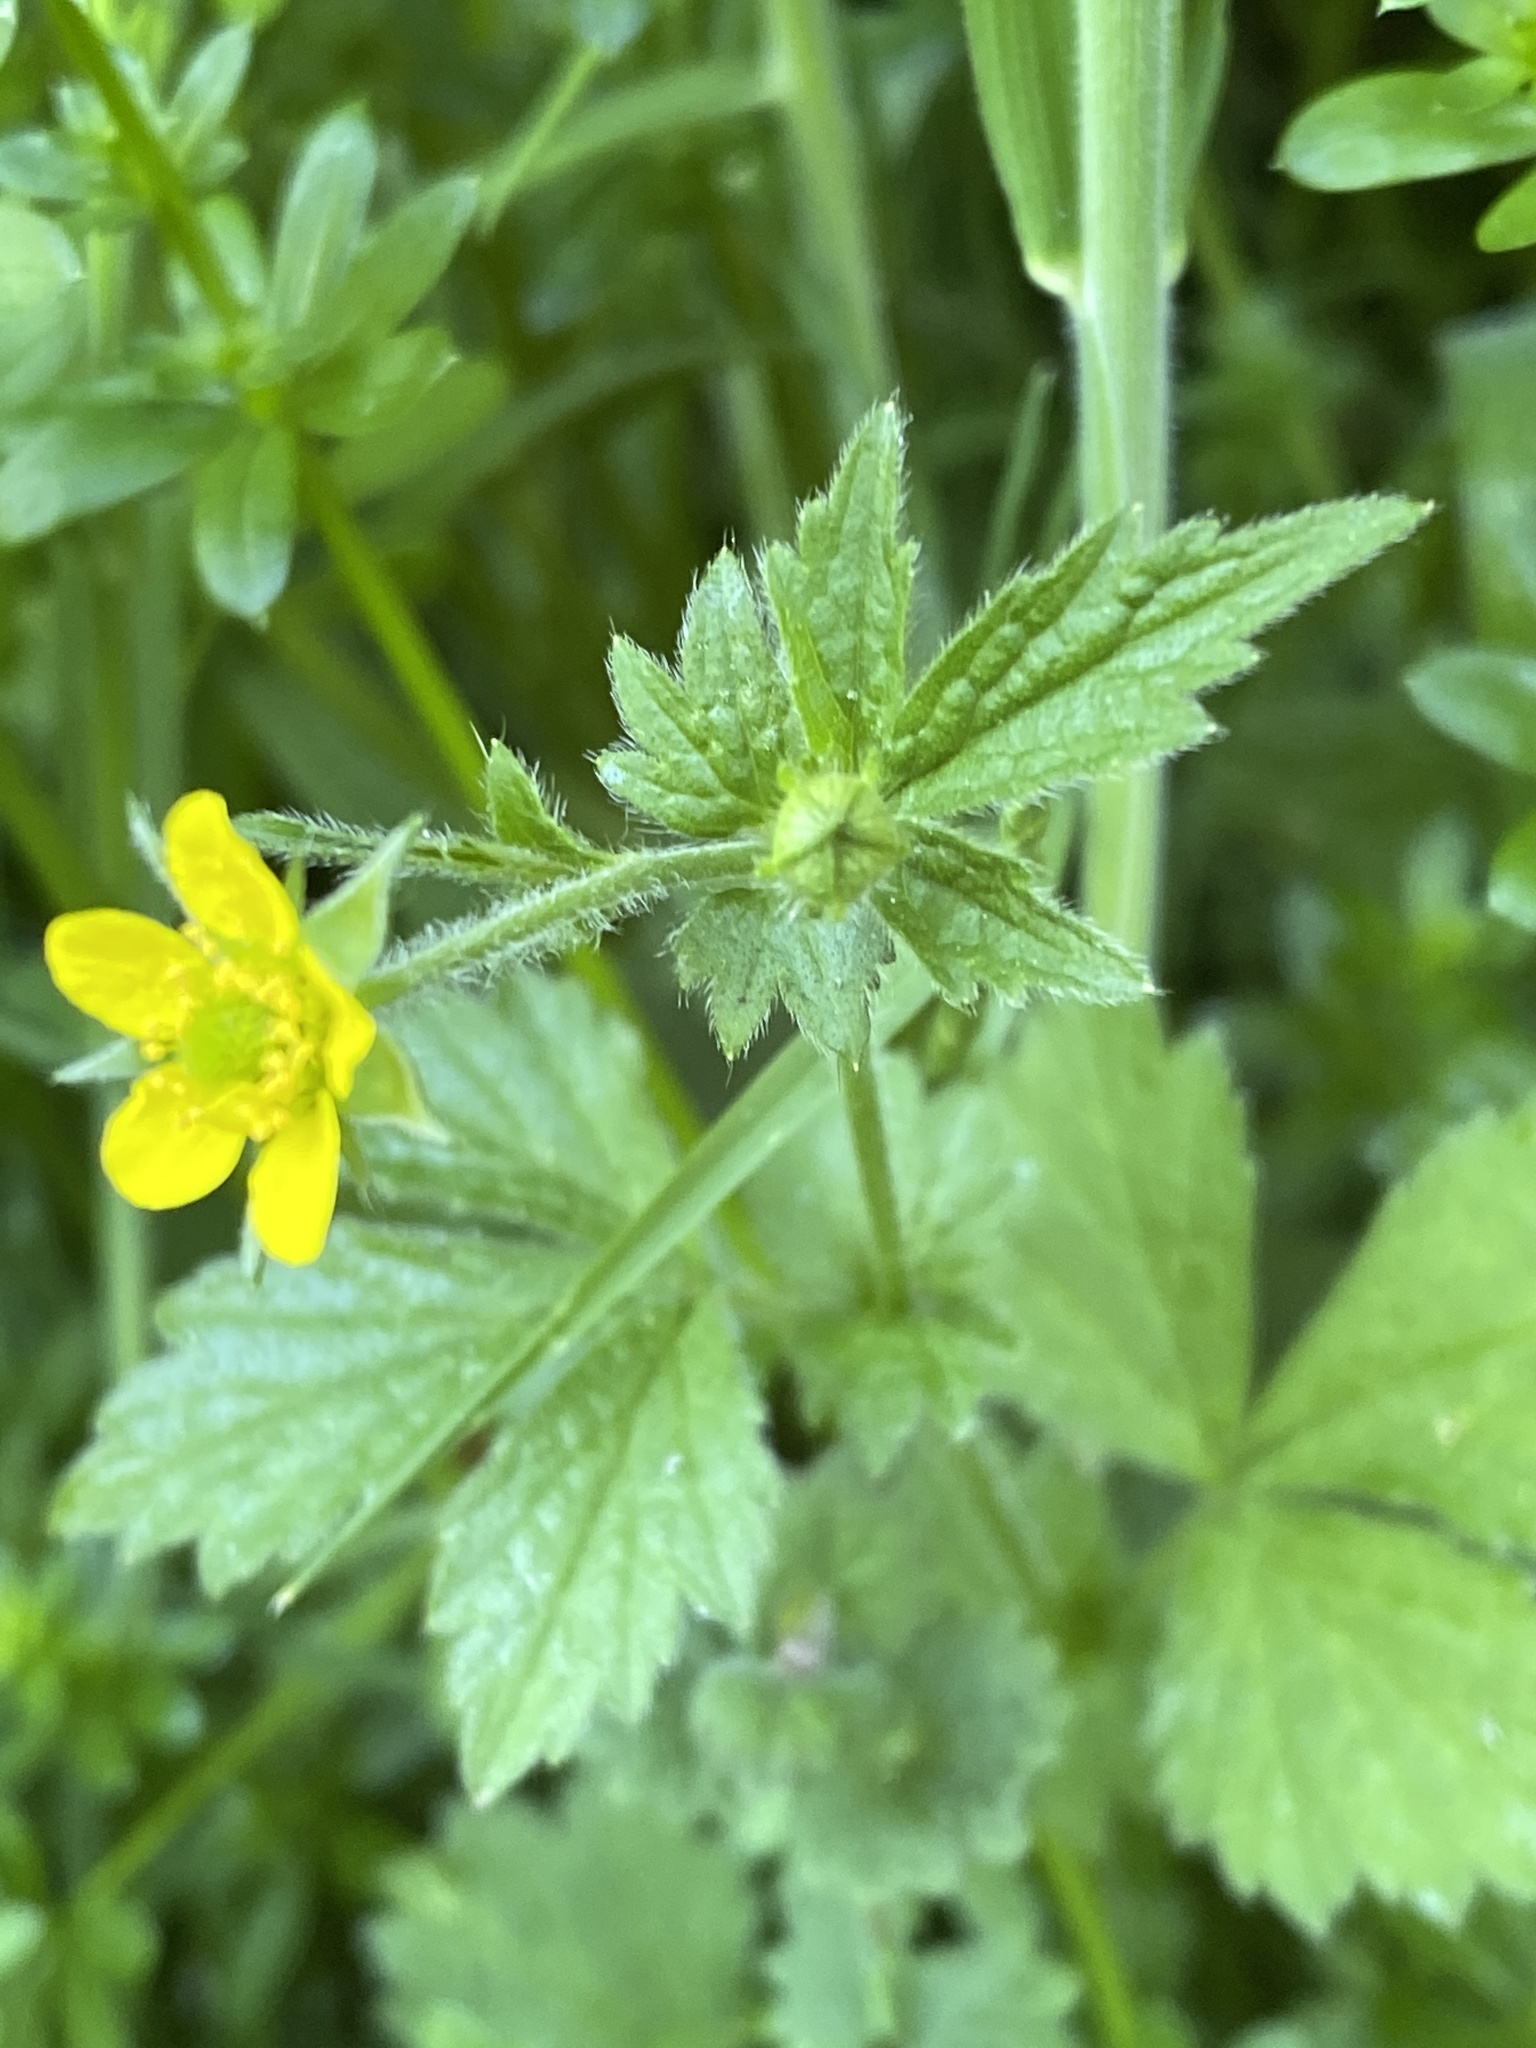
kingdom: Plantae
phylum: Tracheophyta
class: Magnoliopsida
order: Rosales
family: Rosaceae
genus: Geum
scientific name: Geum urbanum
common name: Wood avens
